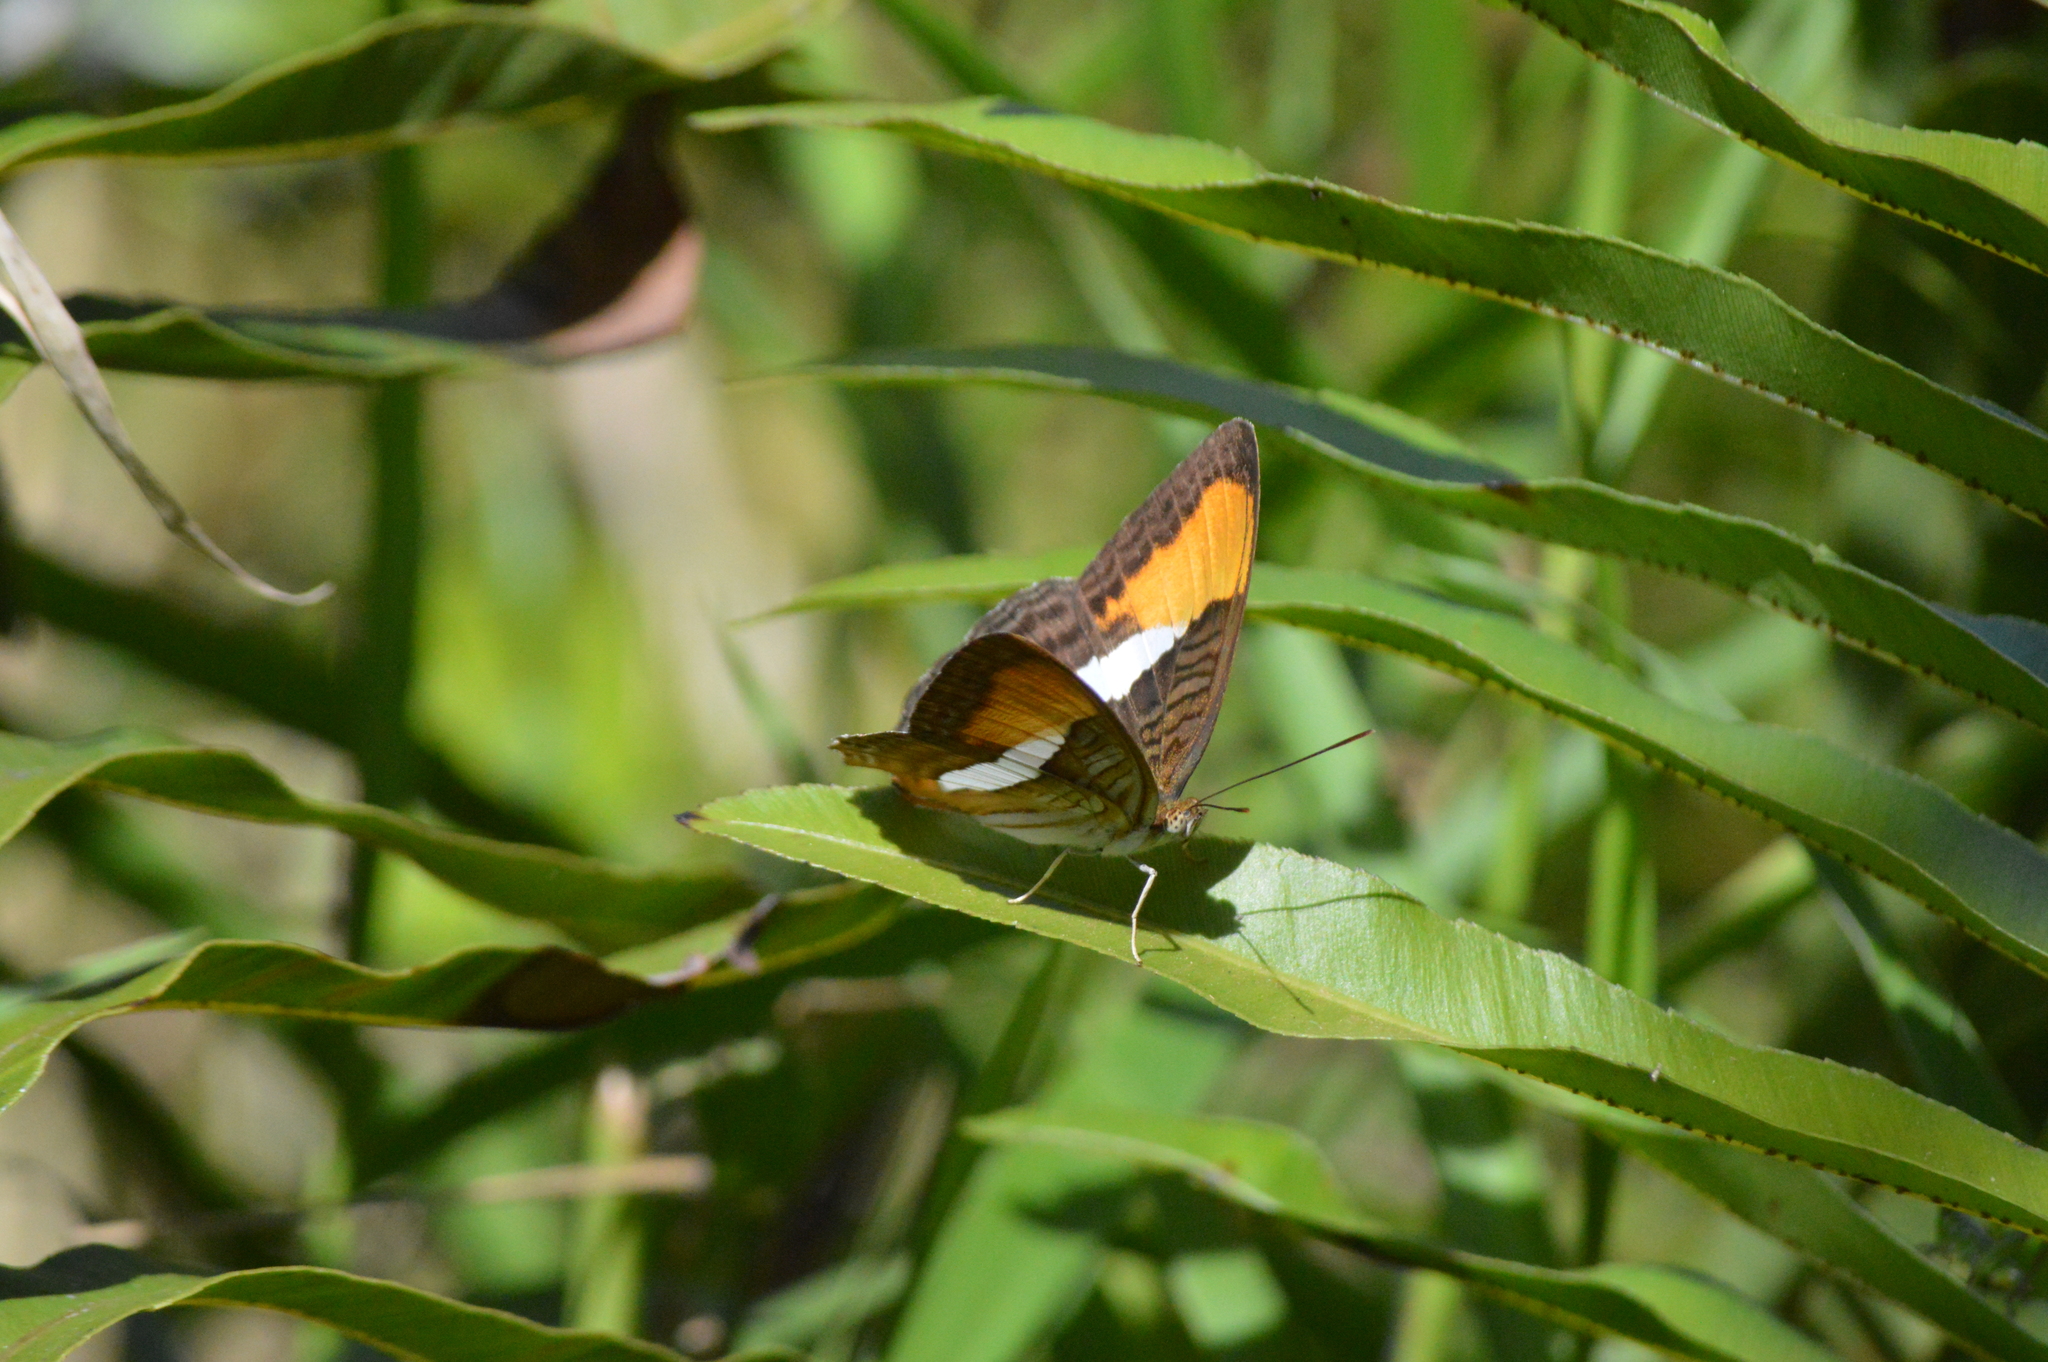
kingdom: Animalia
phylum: Arthropoda
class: Insecta
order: Lepidoptera
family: Nymphalidae
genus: Limenitis
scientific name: Limenitis cytherea
